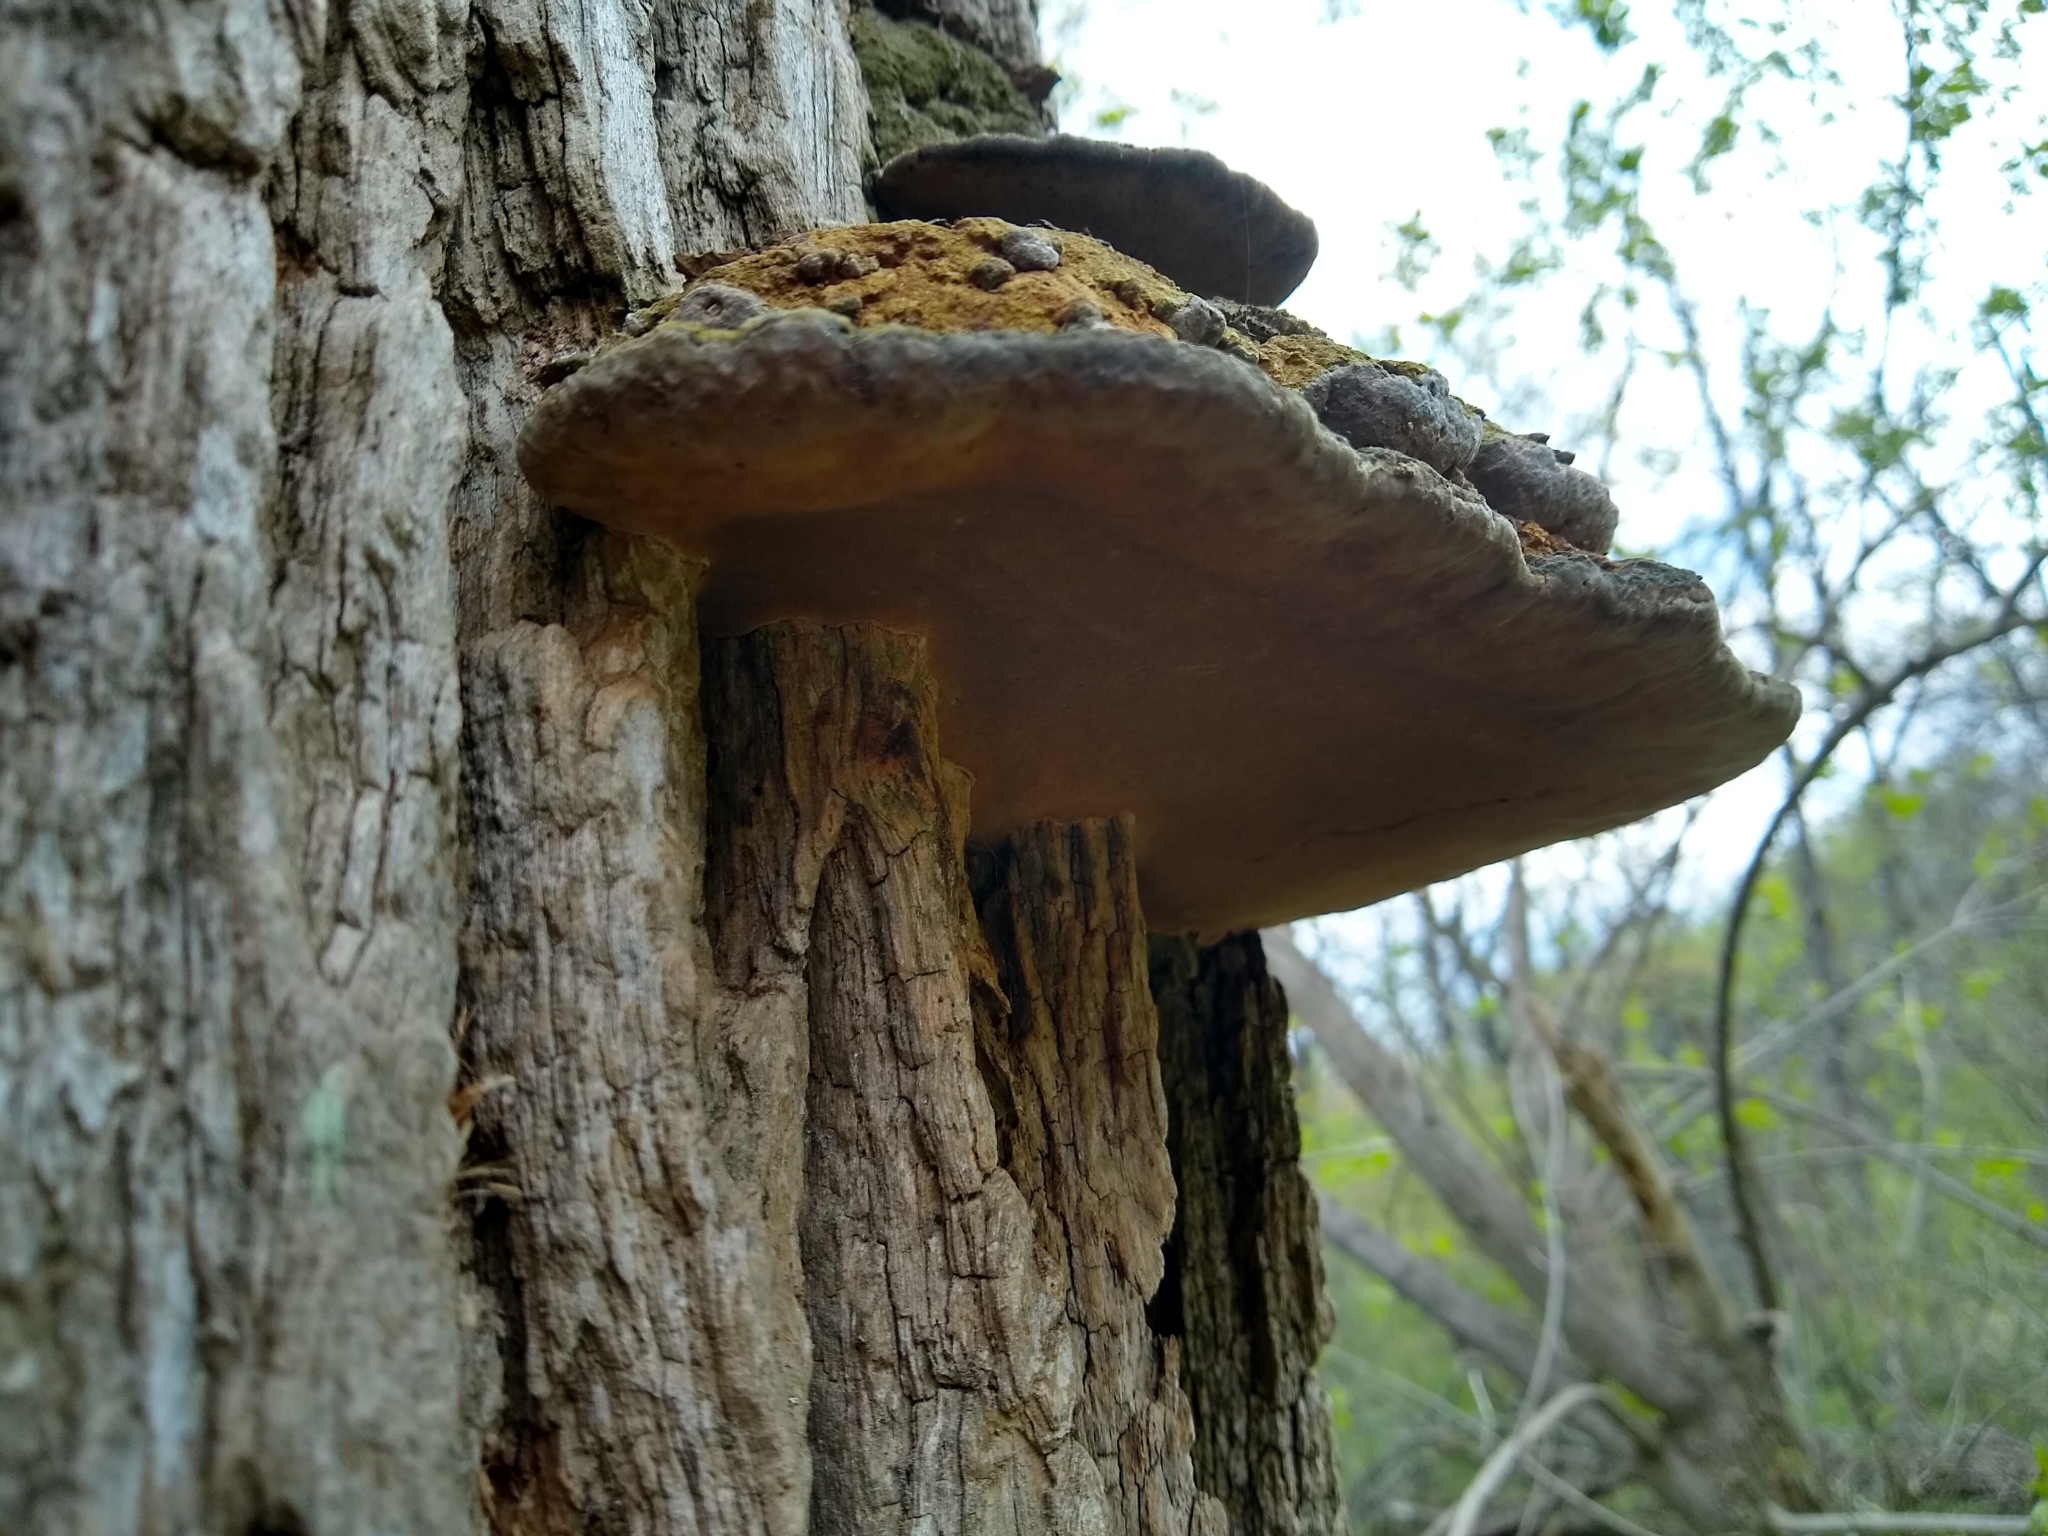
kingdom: Fungi
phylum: Basidiomycota
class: Agaricomycetes
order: Hymenochaetales
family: Hymenochaetaceae
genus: Phellinus
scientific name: Phellinus robiniae
